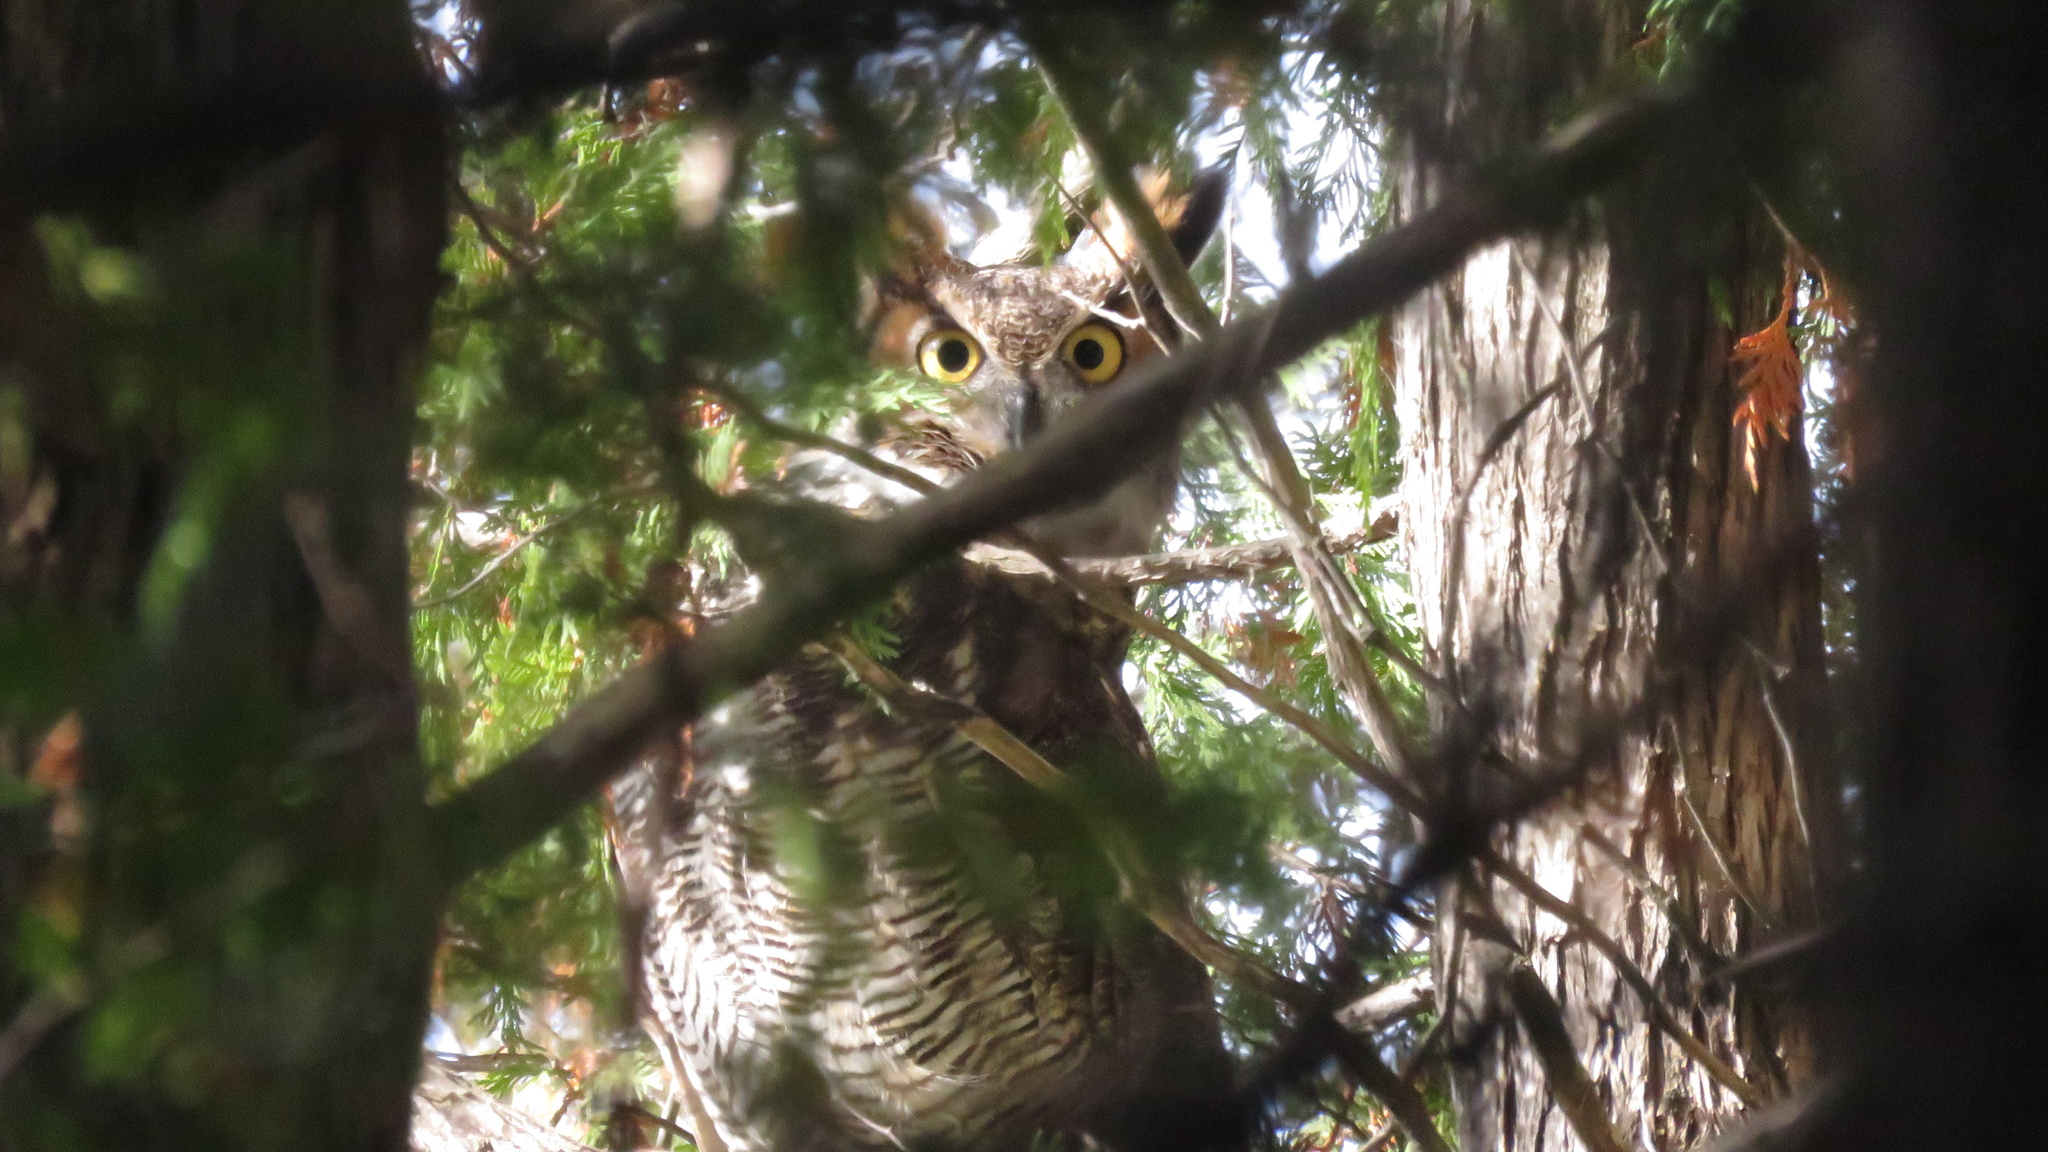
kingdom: Animalia
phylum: Chordata
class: Aves
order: Strigiformes
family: Strigidae
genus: Bubo
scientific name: Bubo virginianus
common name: Great horned owl
